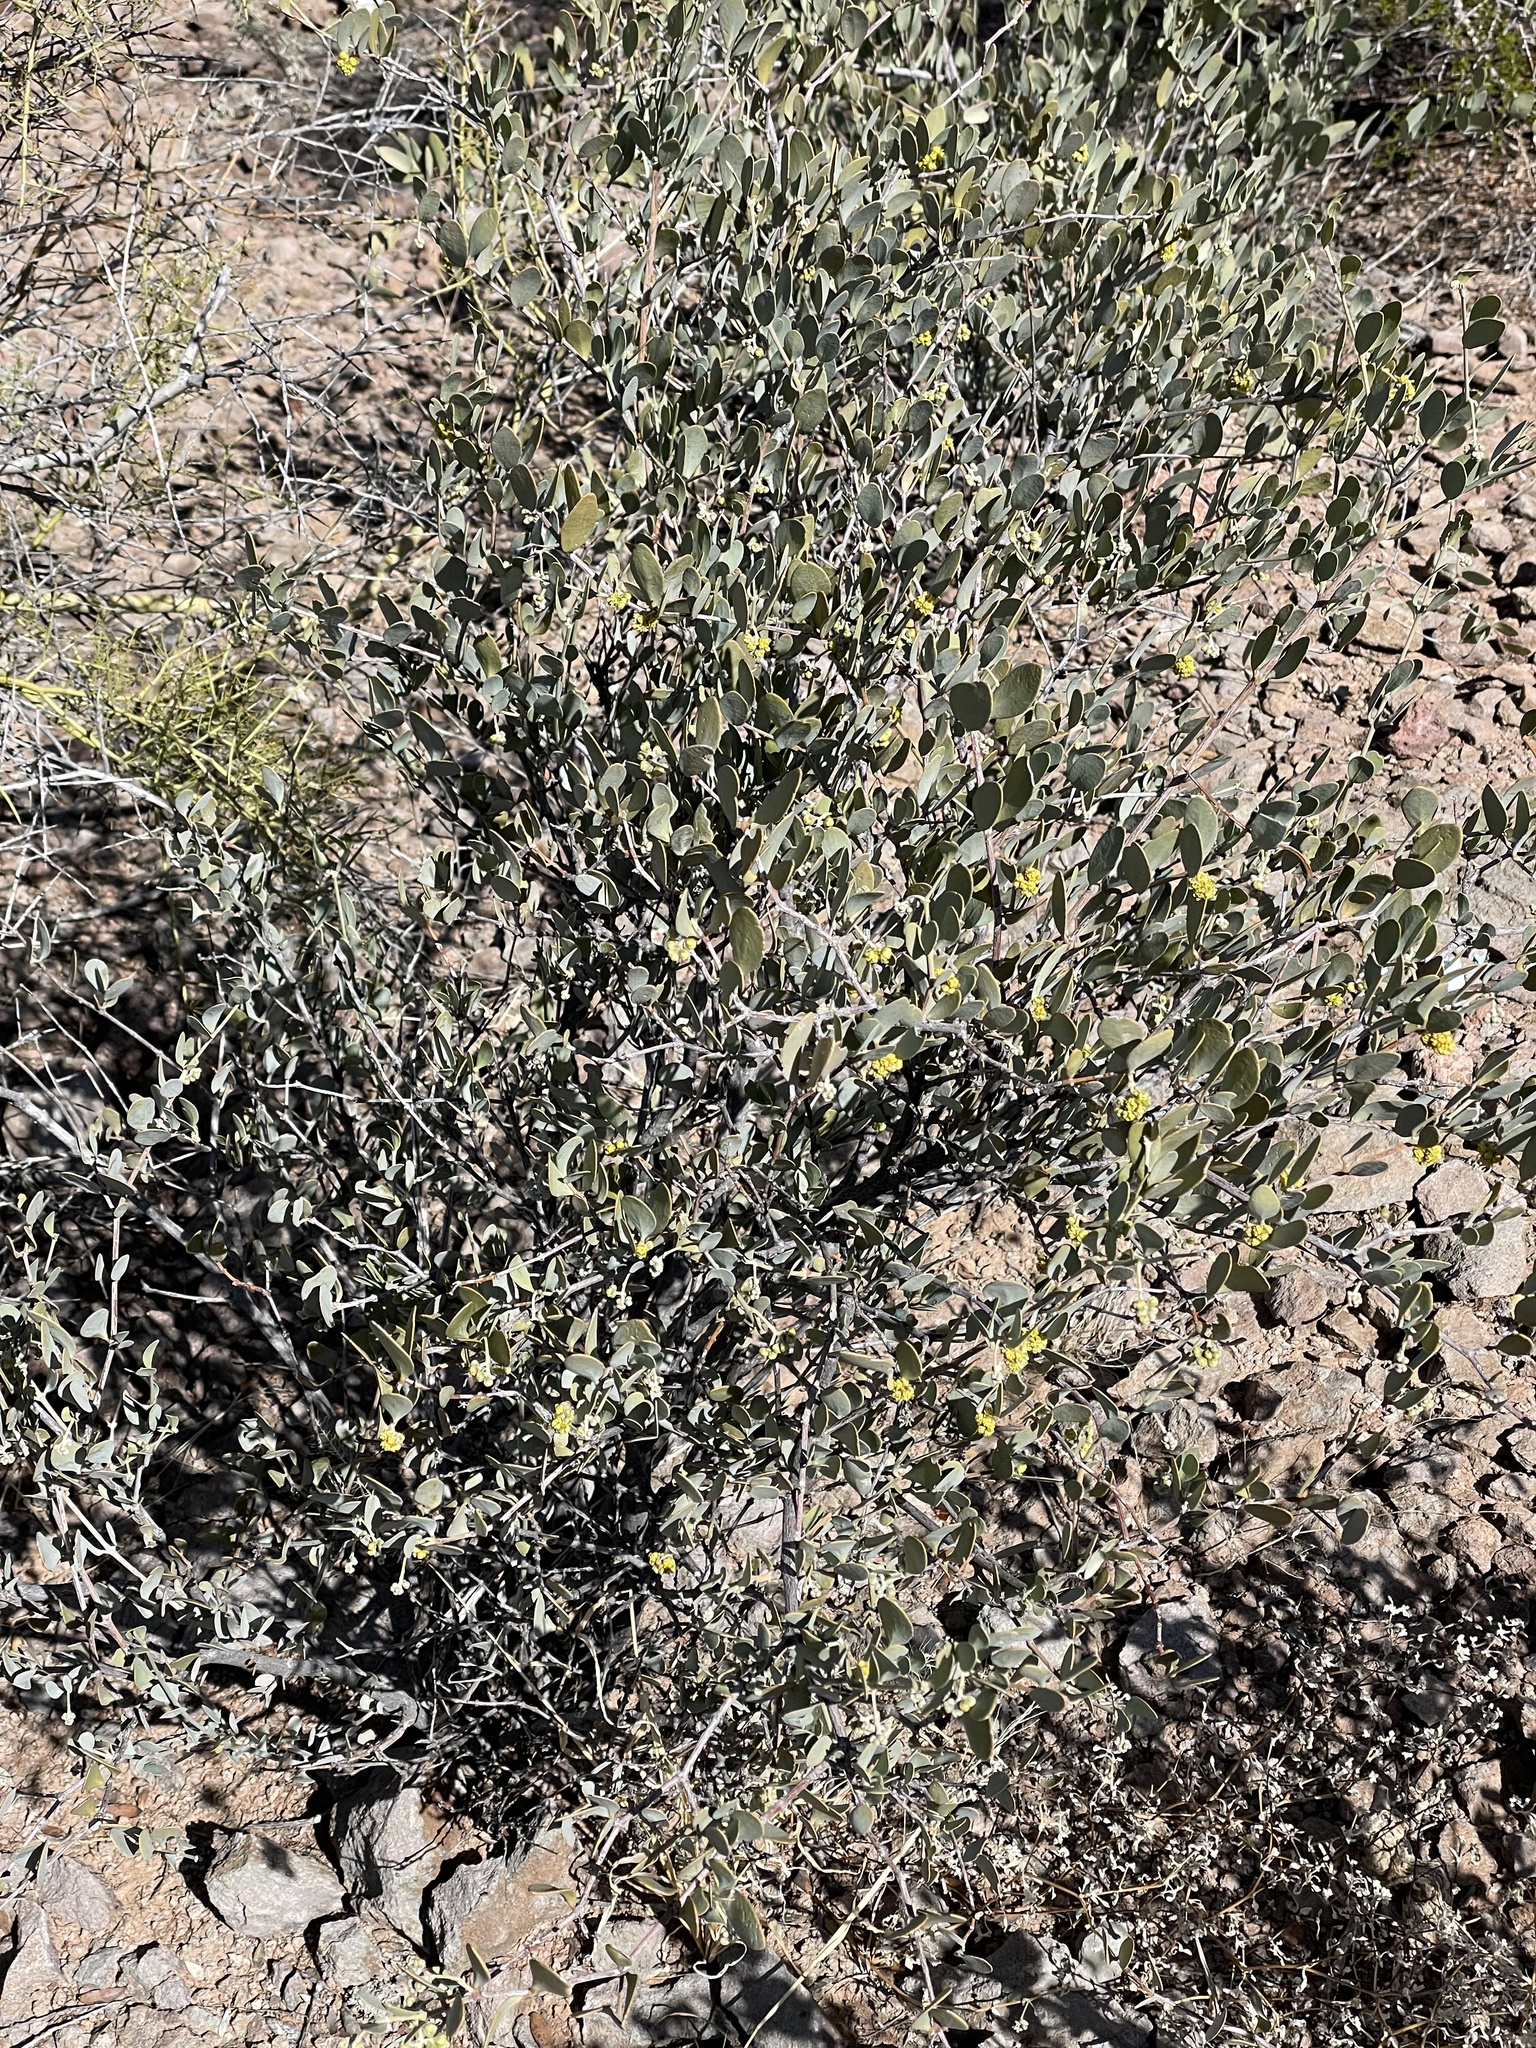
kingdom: Plantae
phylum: Tracheophyta
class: Magnoliopsida
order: Caryophyllales
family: Simmondsiaceae
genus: Simmondsia
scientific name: Simmondsia chinensis
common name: Jojoba
